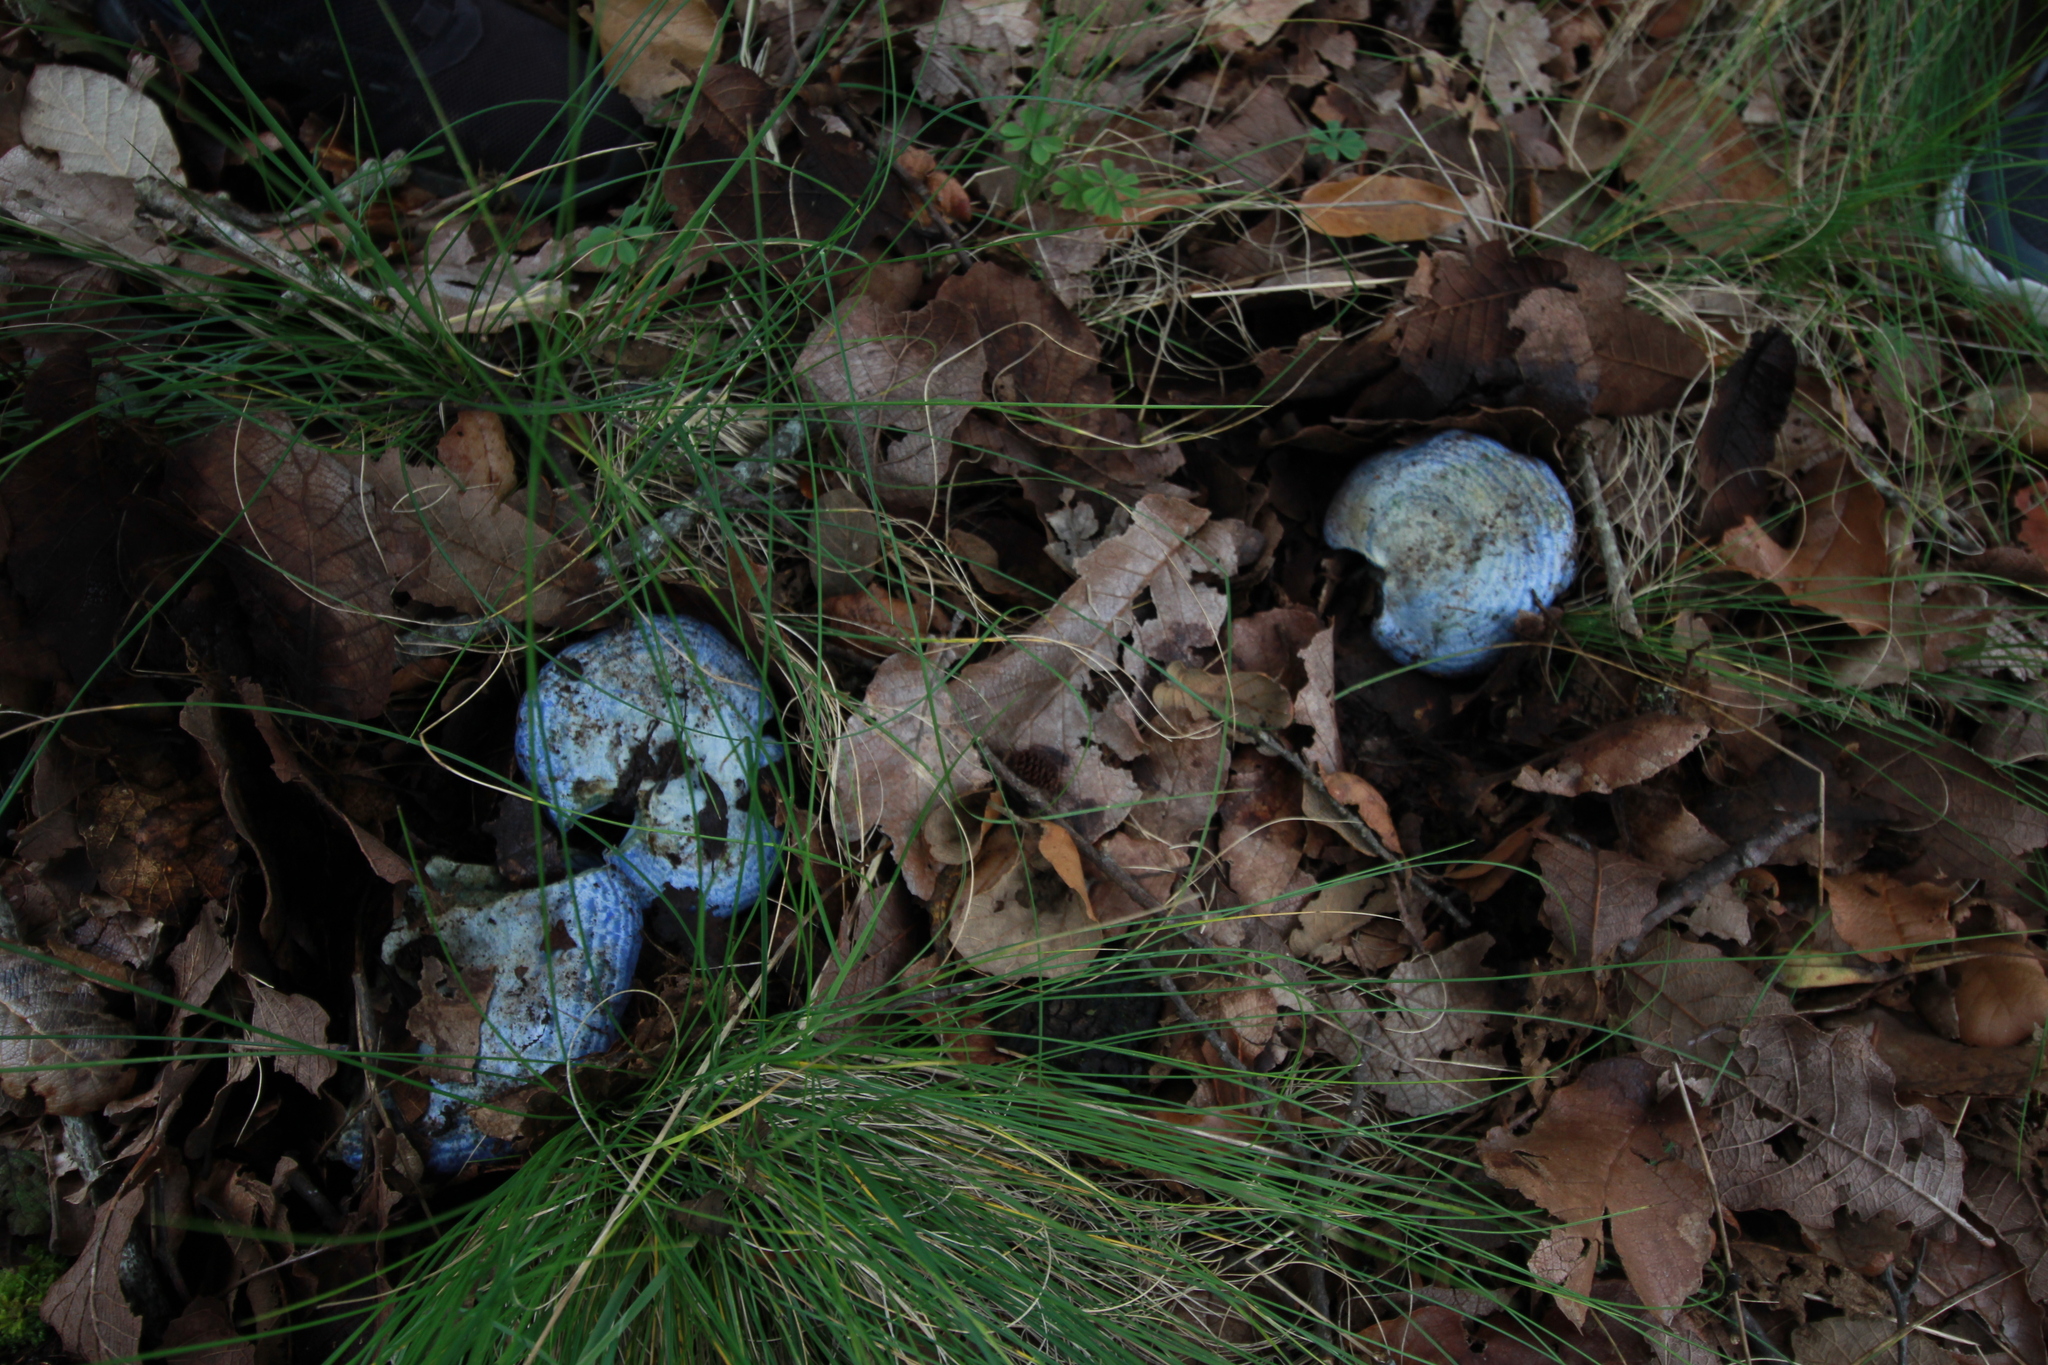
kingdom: Fungi
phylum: Basidiomycota
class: Agaricomycetes
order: Russulales
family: Russulaceae
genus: Lactarius
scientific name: Lactarius indigo
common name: Indigo milk cap
